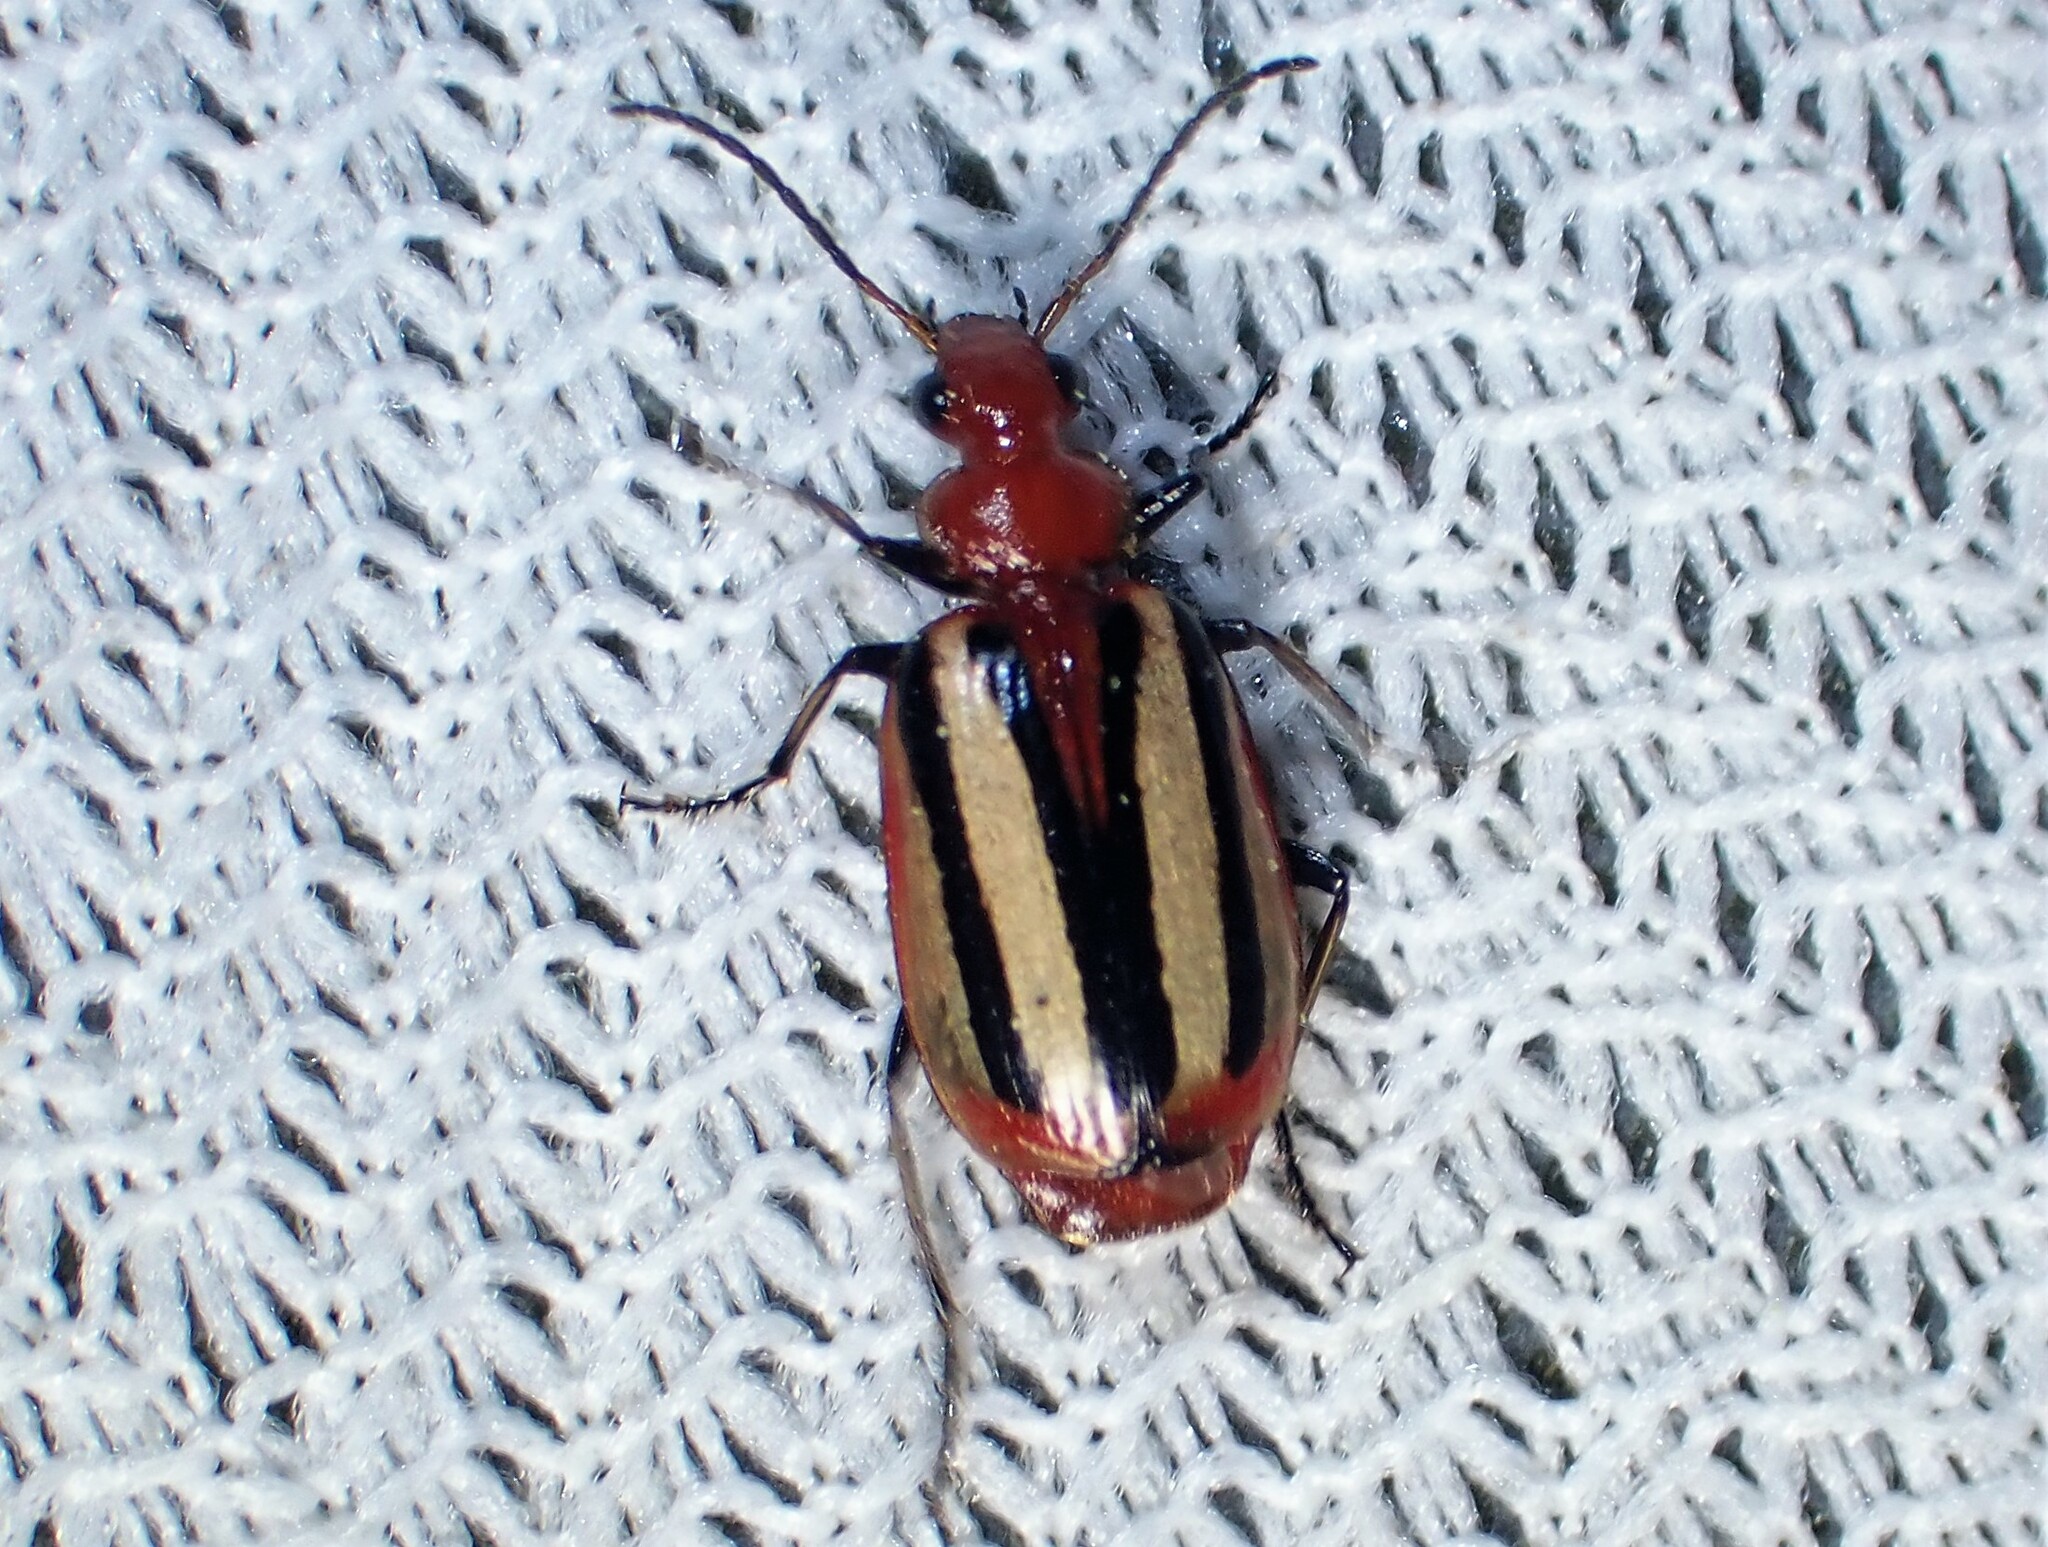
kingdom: Animalia
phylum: Arthropoda
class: Insecta
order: Coleoptera
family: Carabidae
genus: Lebia
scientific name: Lebia vittata
